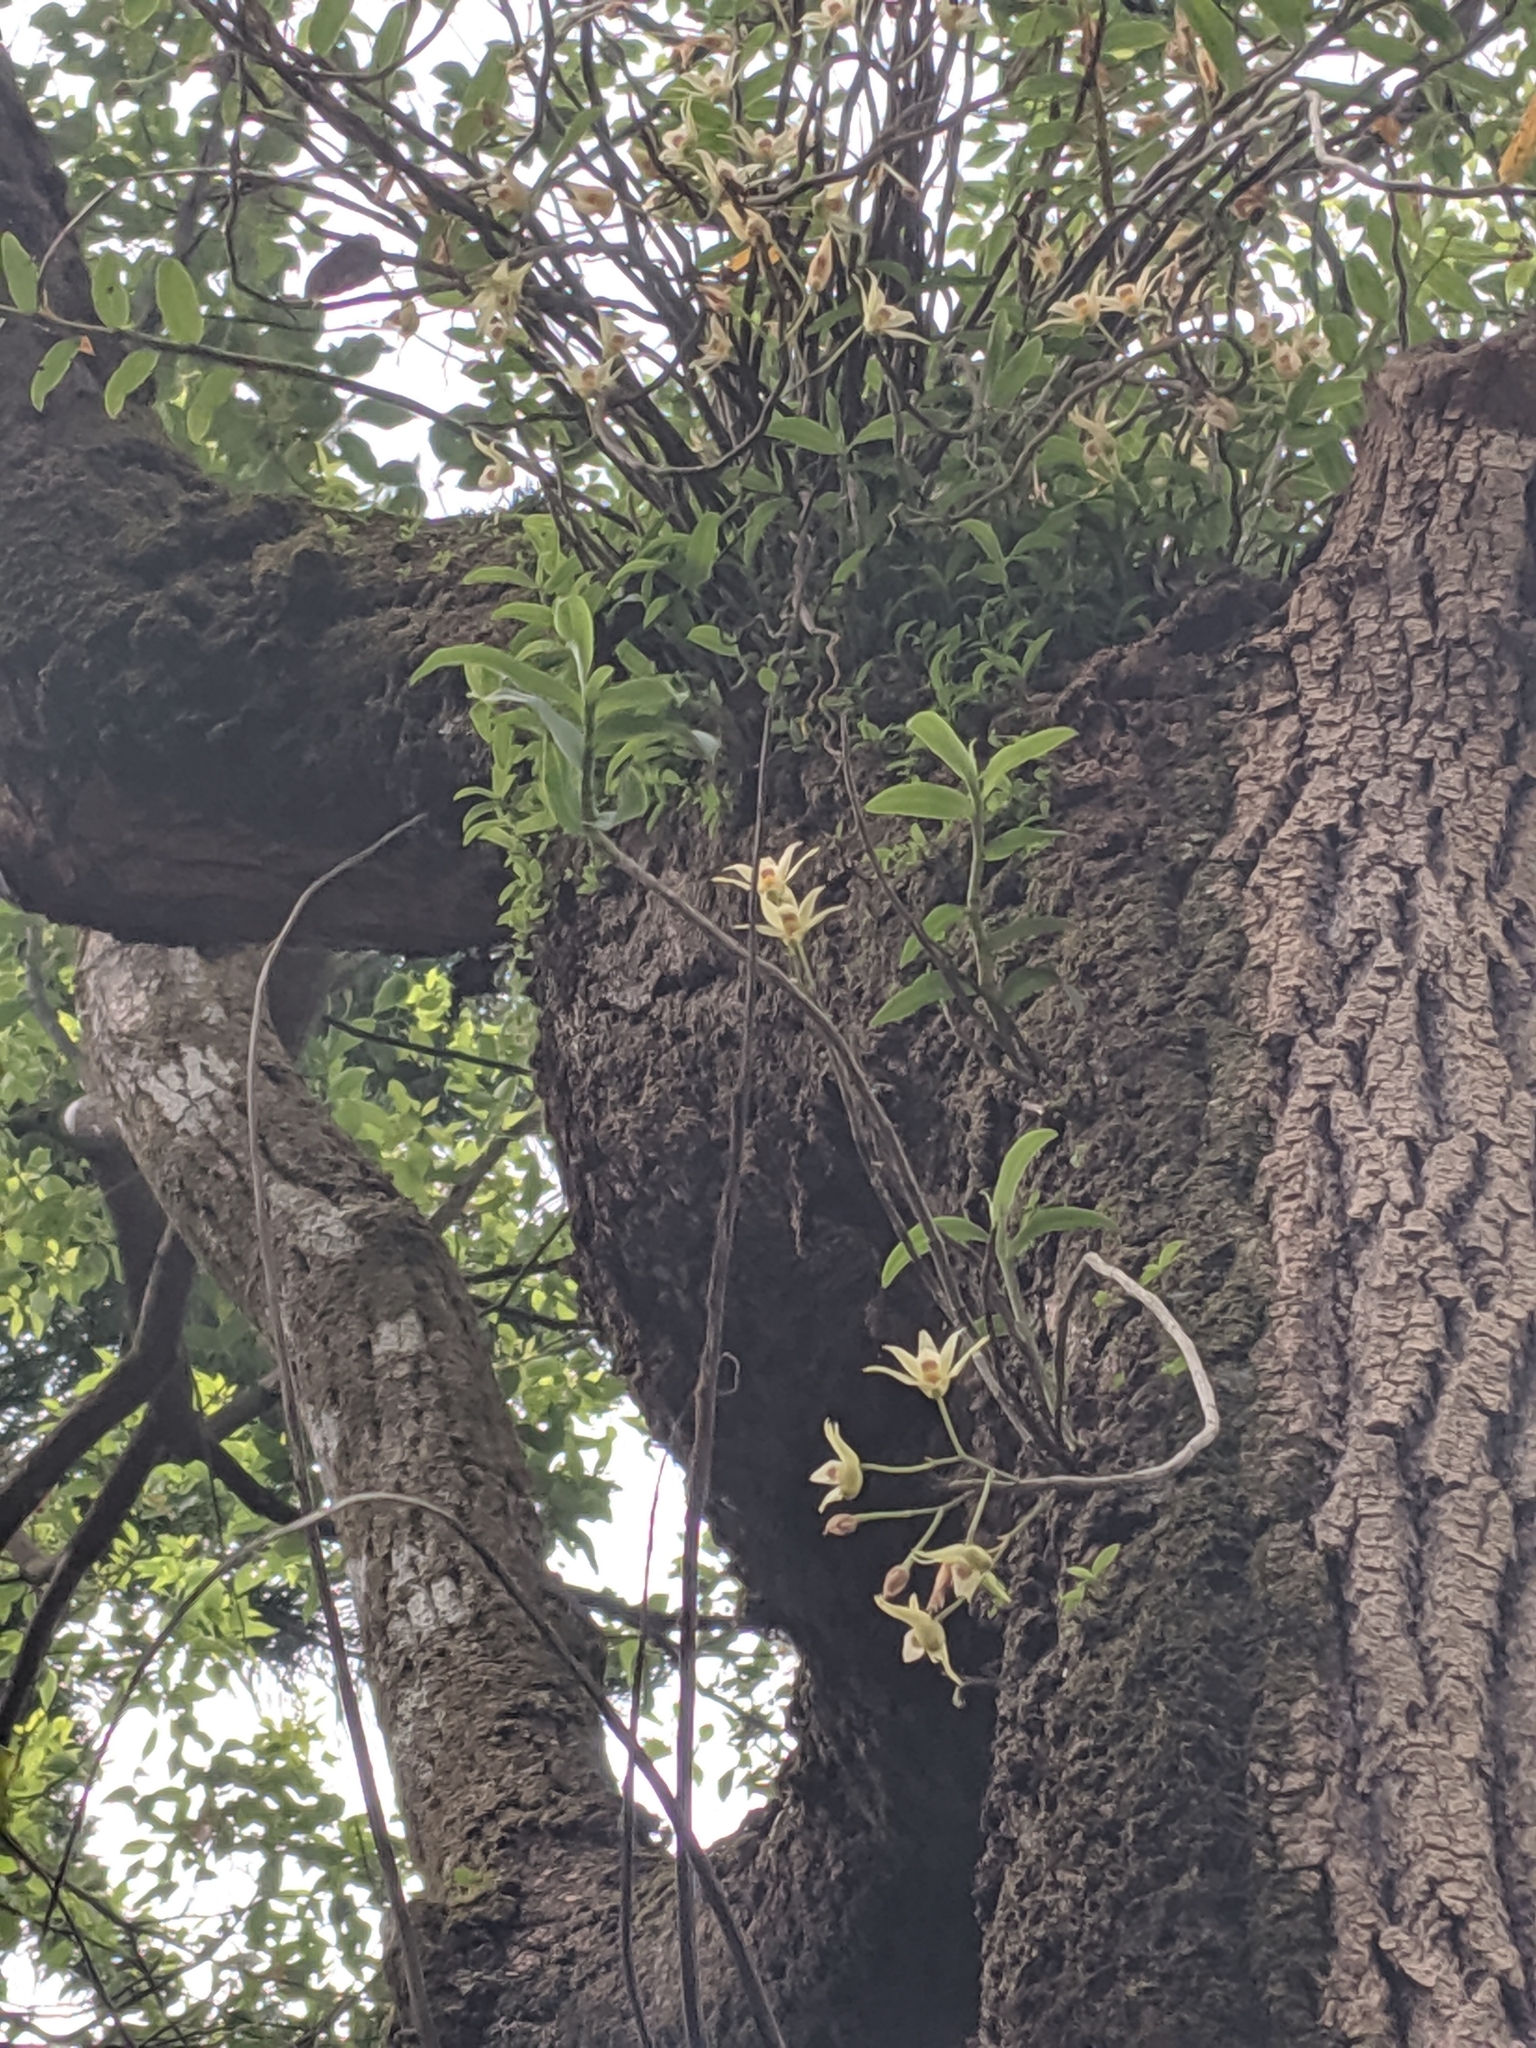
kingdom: Plantae
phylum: Tracheophyta
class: Liliopsida
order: Asparagales
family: Orchidaceae
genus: Dendrobium
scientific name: Dendrobium officinale
